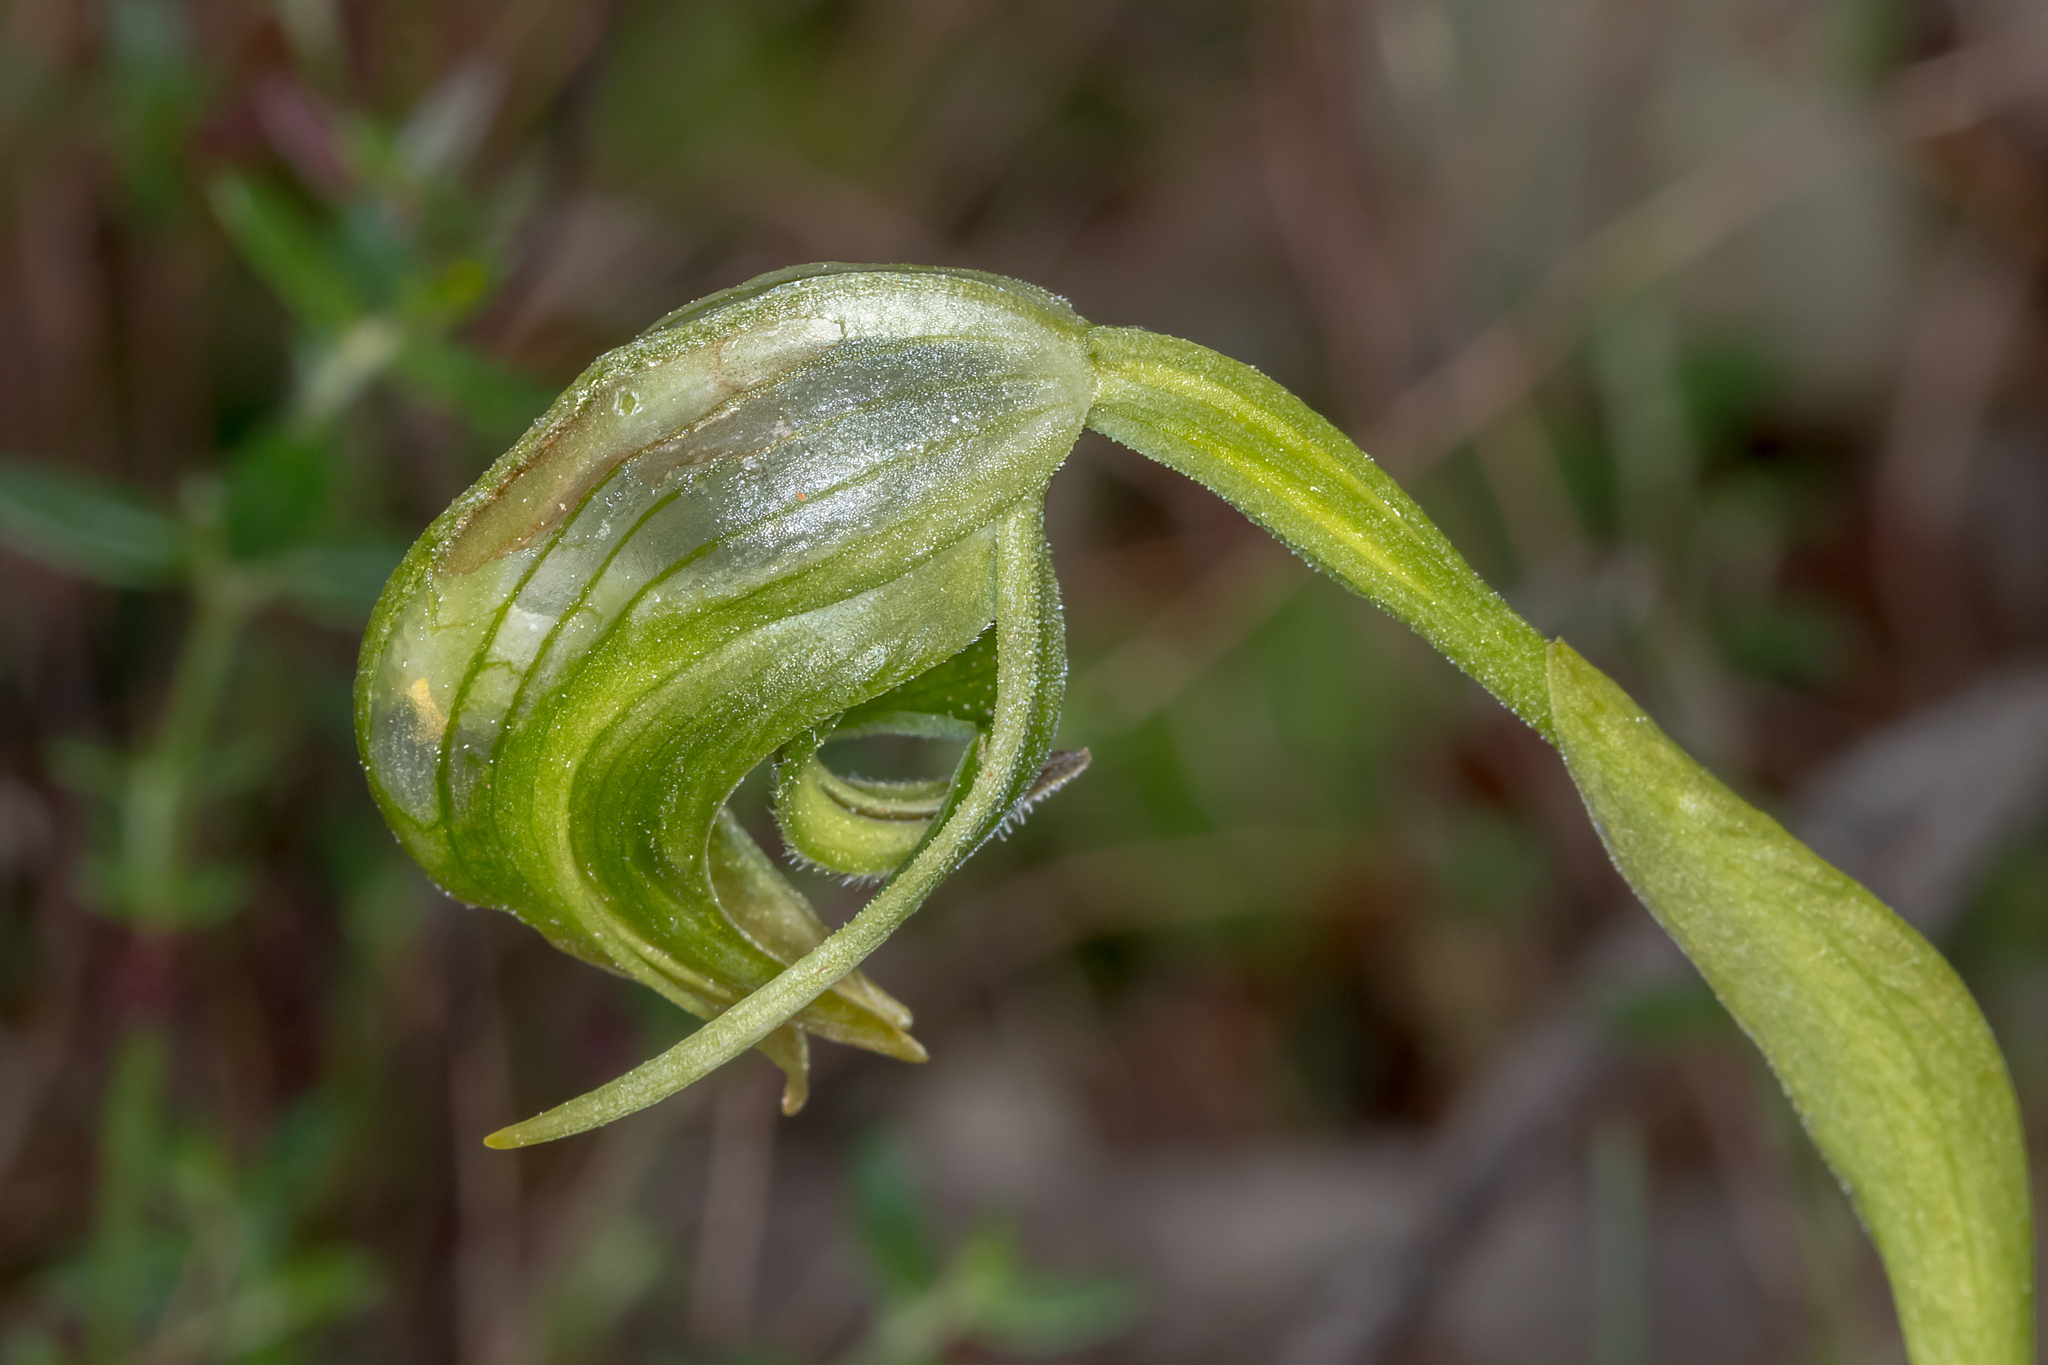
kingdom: Plantae
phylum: Tracheophyta
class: Liliopsida
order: Asparagales
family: Orchidaceae
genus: Pterostylis
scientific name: Pterostylis nutans
